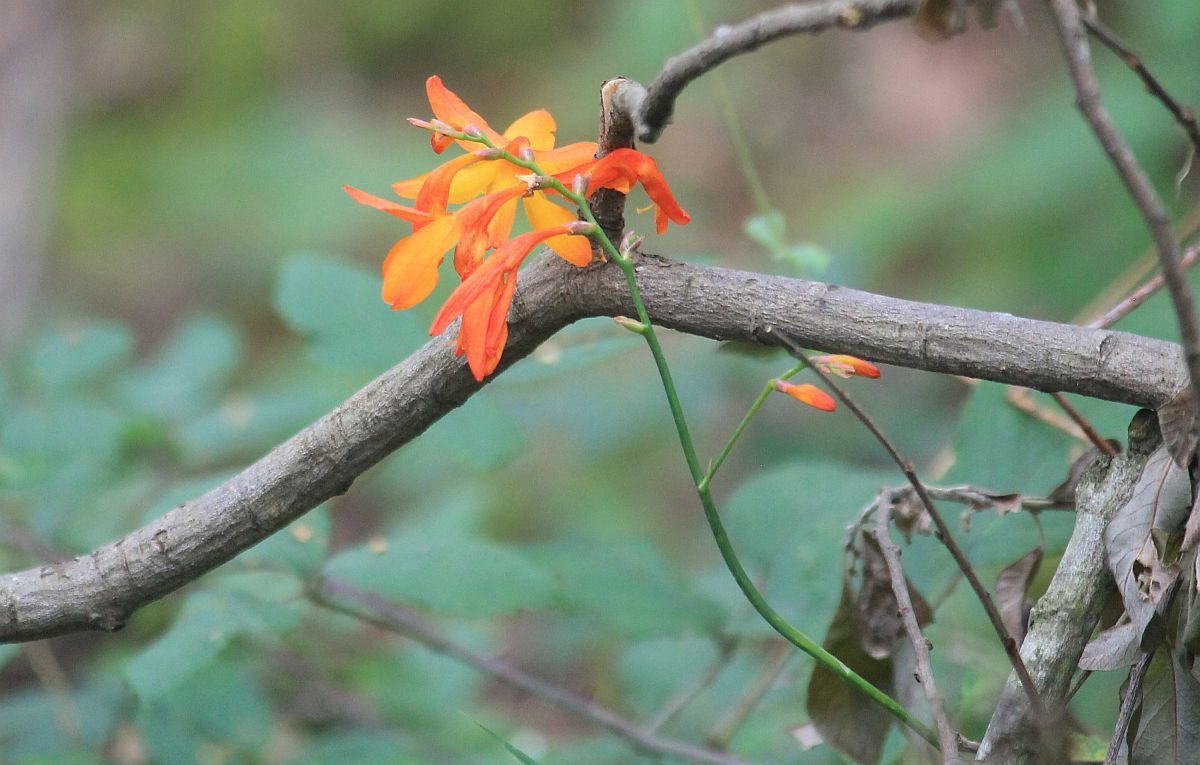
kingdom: Plantae
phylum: Tracheophyta
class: Liliopsida
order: Asparagales
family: Iridaceae
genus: Crocosmia
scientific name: Crocosmia crocosmiiflora
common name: Montbretia
